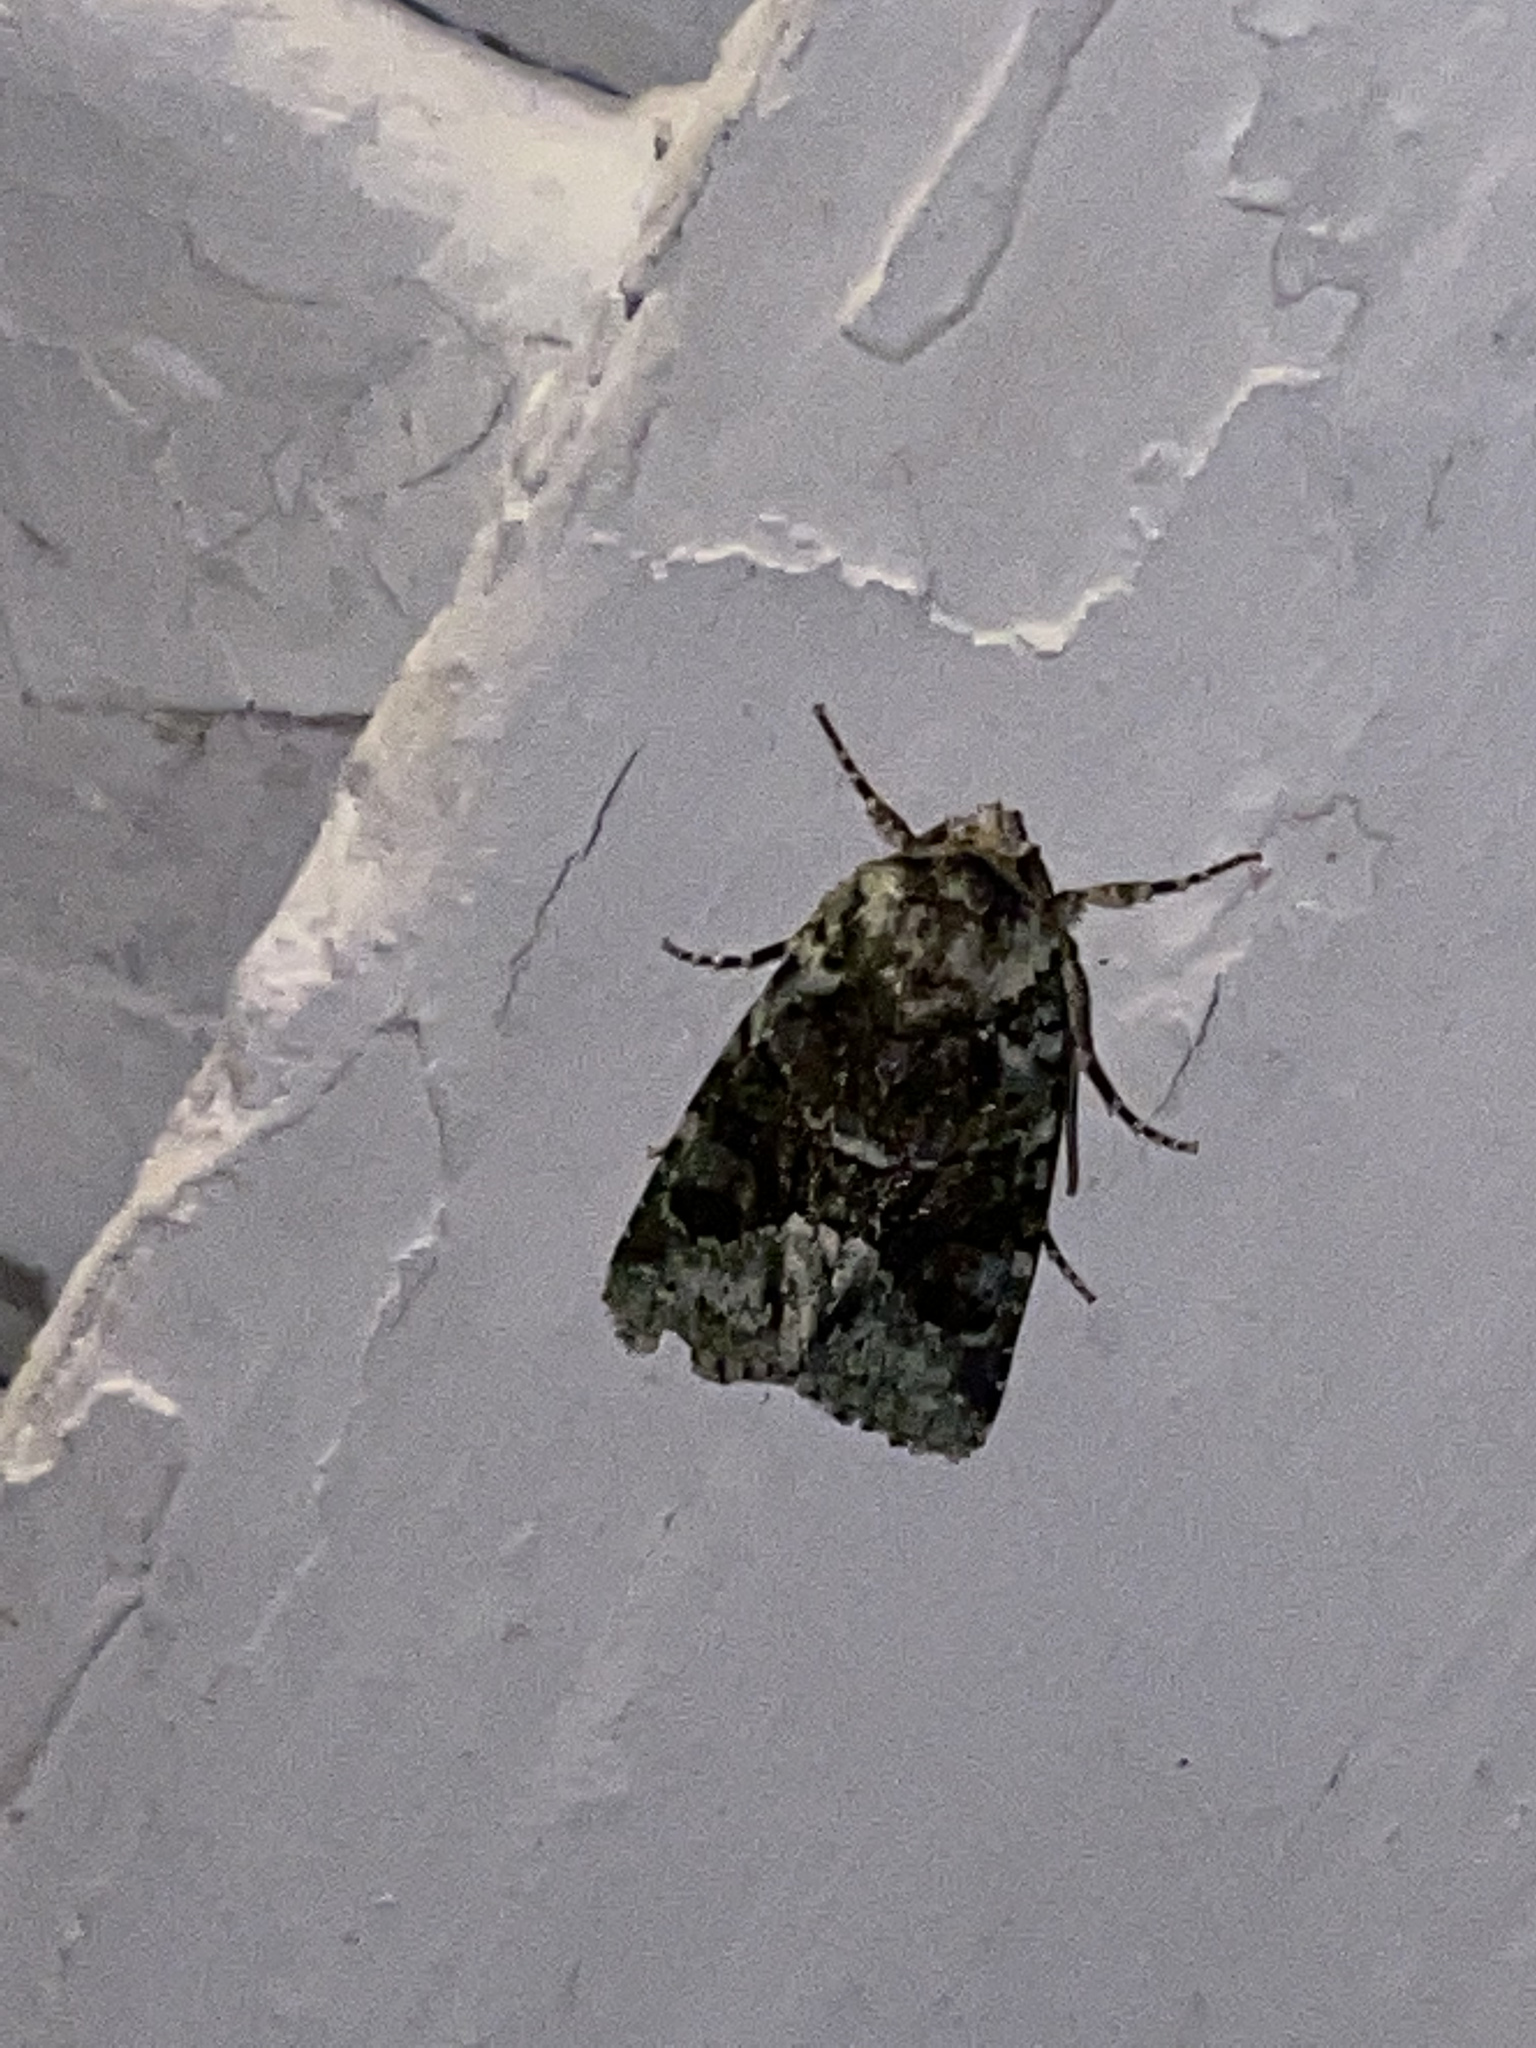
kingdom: Animalia
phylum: Arthropoda
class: Insecta
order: Lepidoptera
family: Noctuidae
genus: Lacinipolia
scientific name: Lacinipolia explicata
